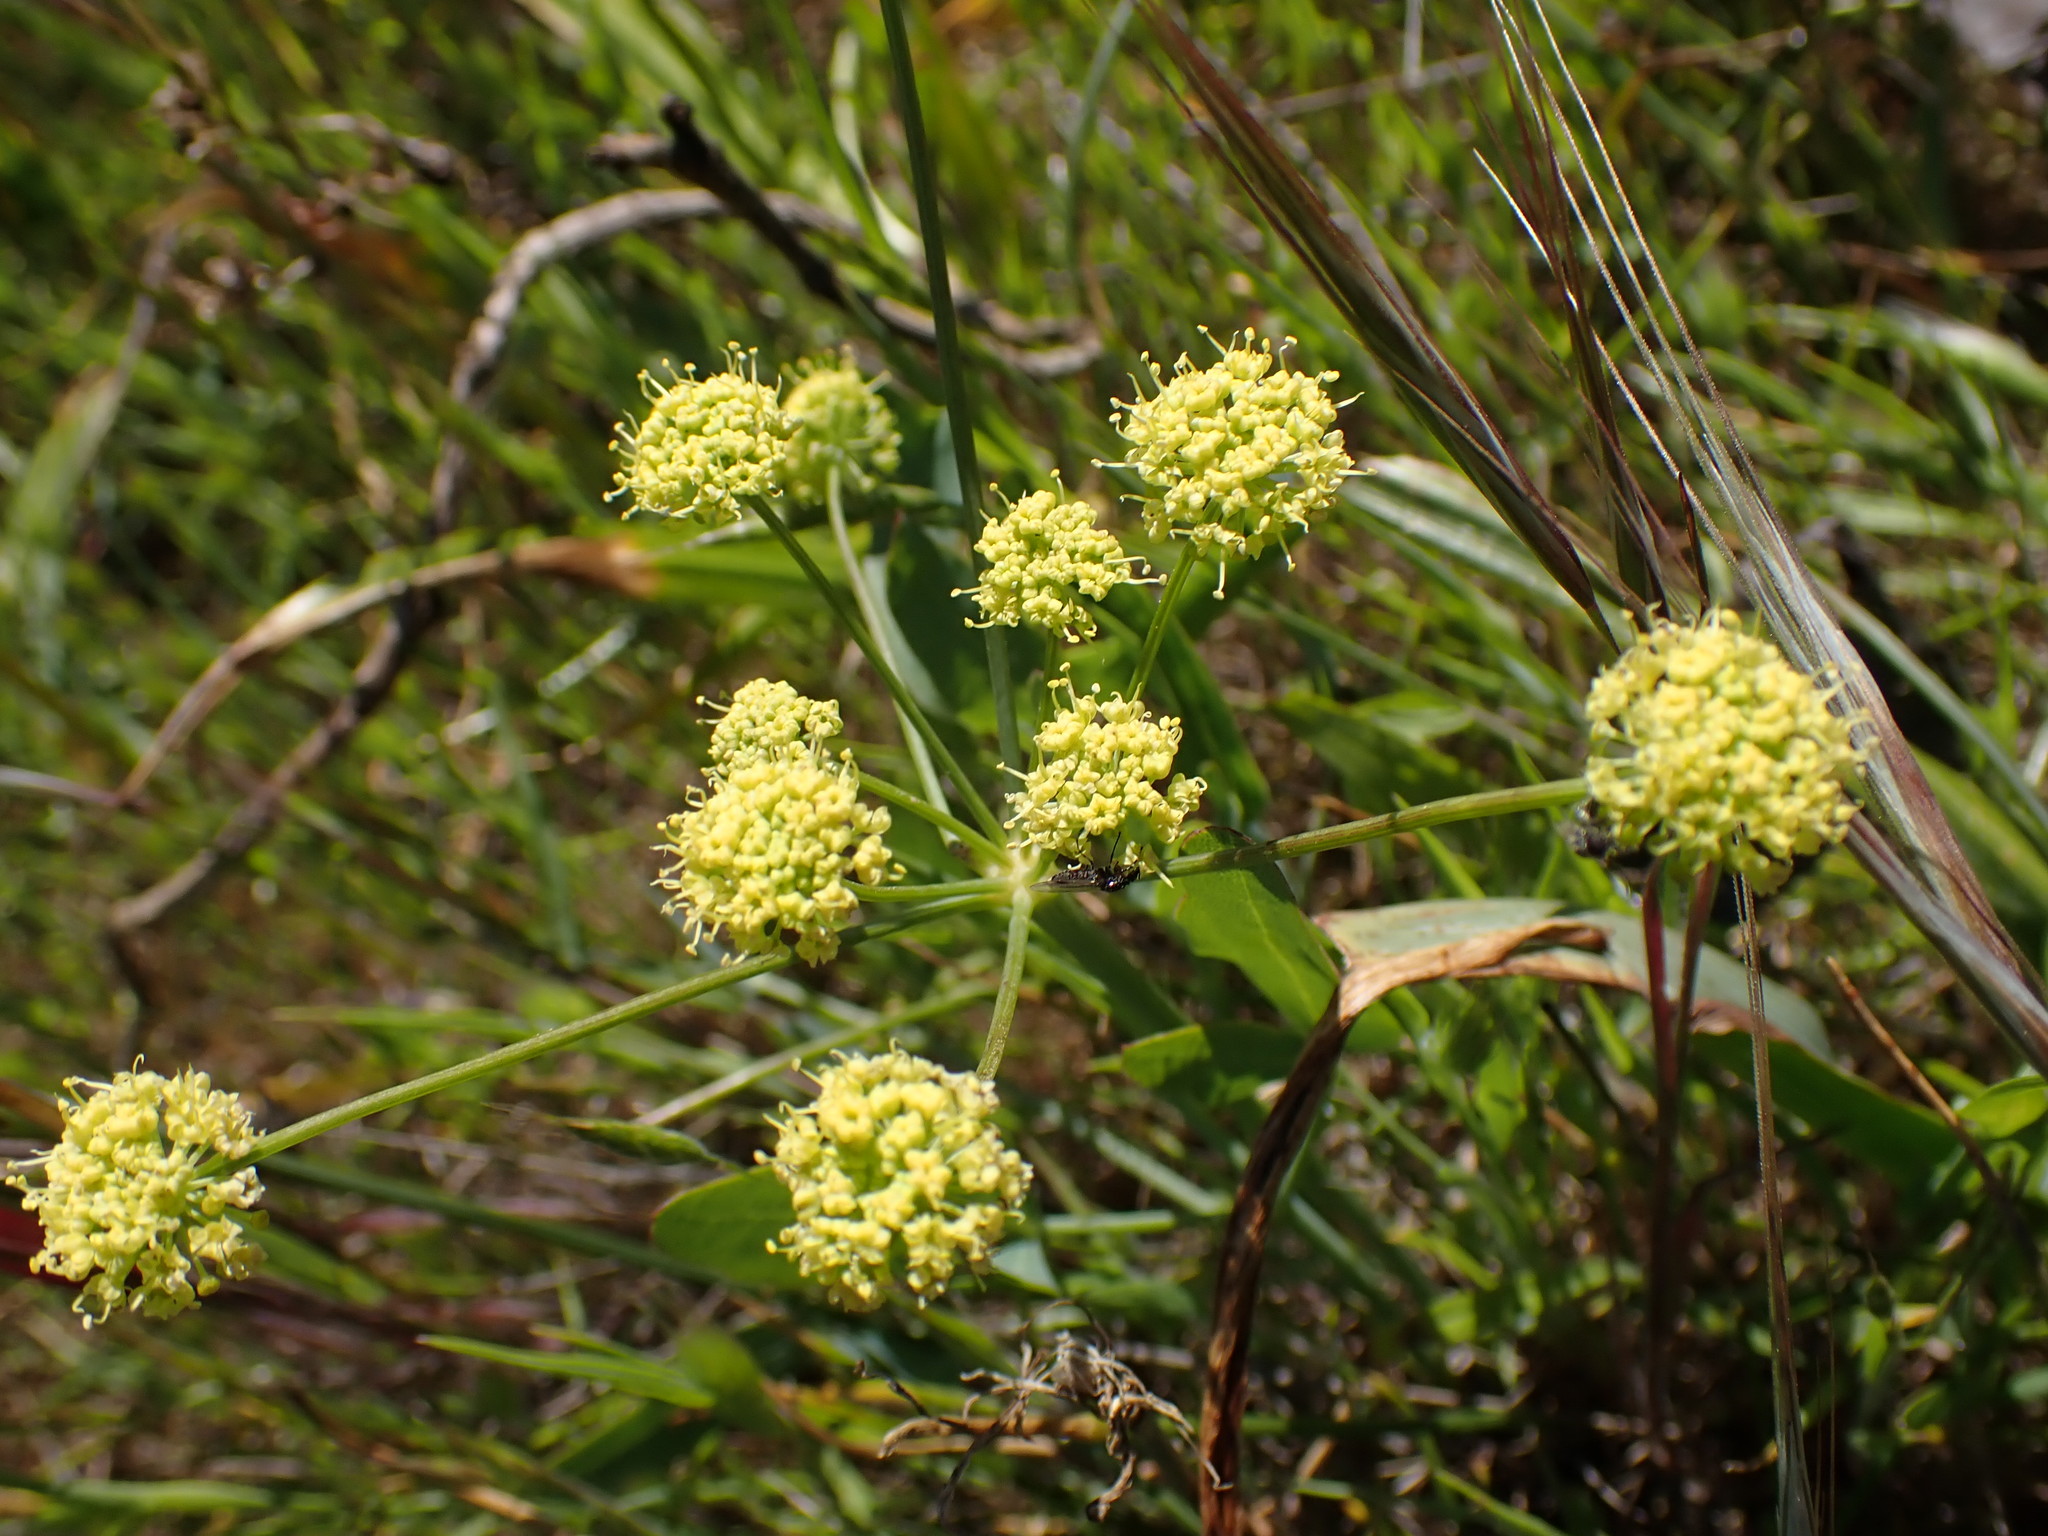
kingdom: Plantae
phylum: Tracheophyta
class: Magnoliopsida
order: Apiales
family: Apiaceae
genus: Lomatium
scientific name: Lomatium nudicaule
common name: Pestle lomatium
